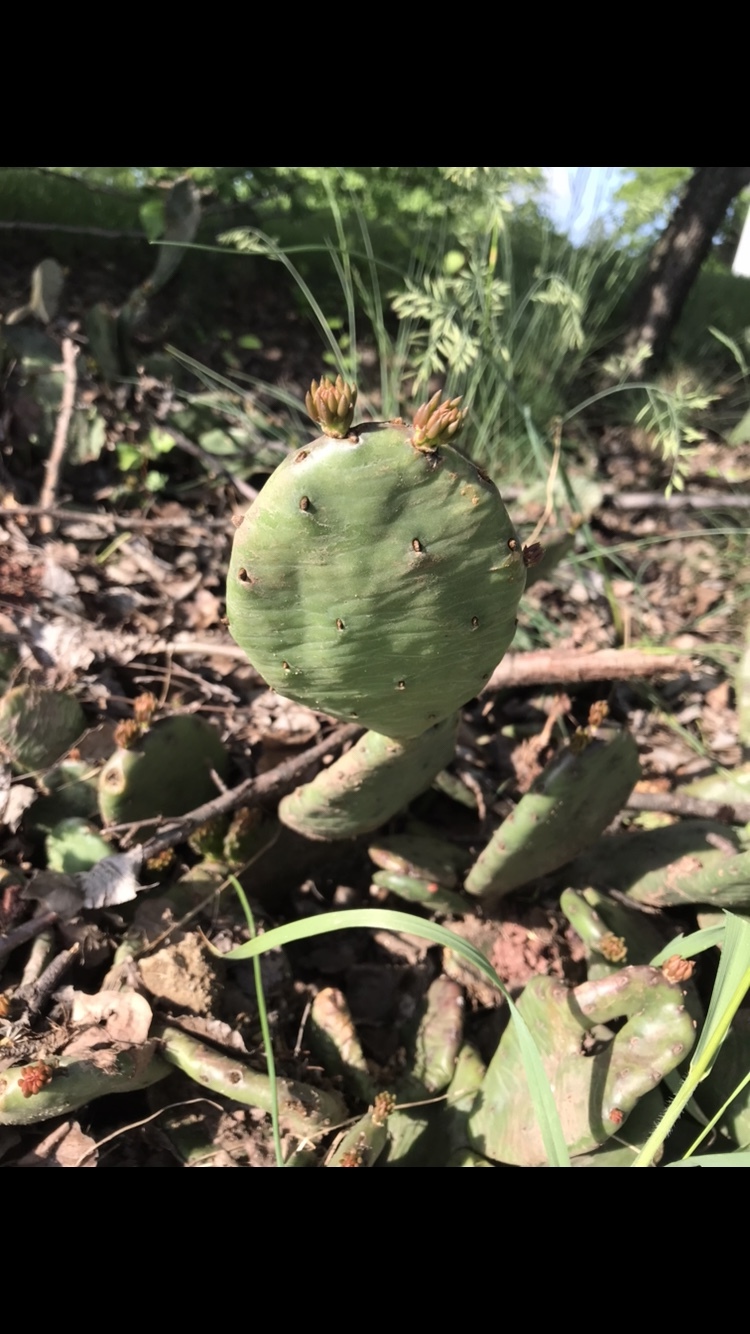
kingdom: Plantae
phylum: Tracheophyta
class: Magnoliopsida
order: Caryophyllales
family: Cactaceae
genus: Opuntia
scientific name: Opuntia humifusa
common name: Eastern prickly-pear
